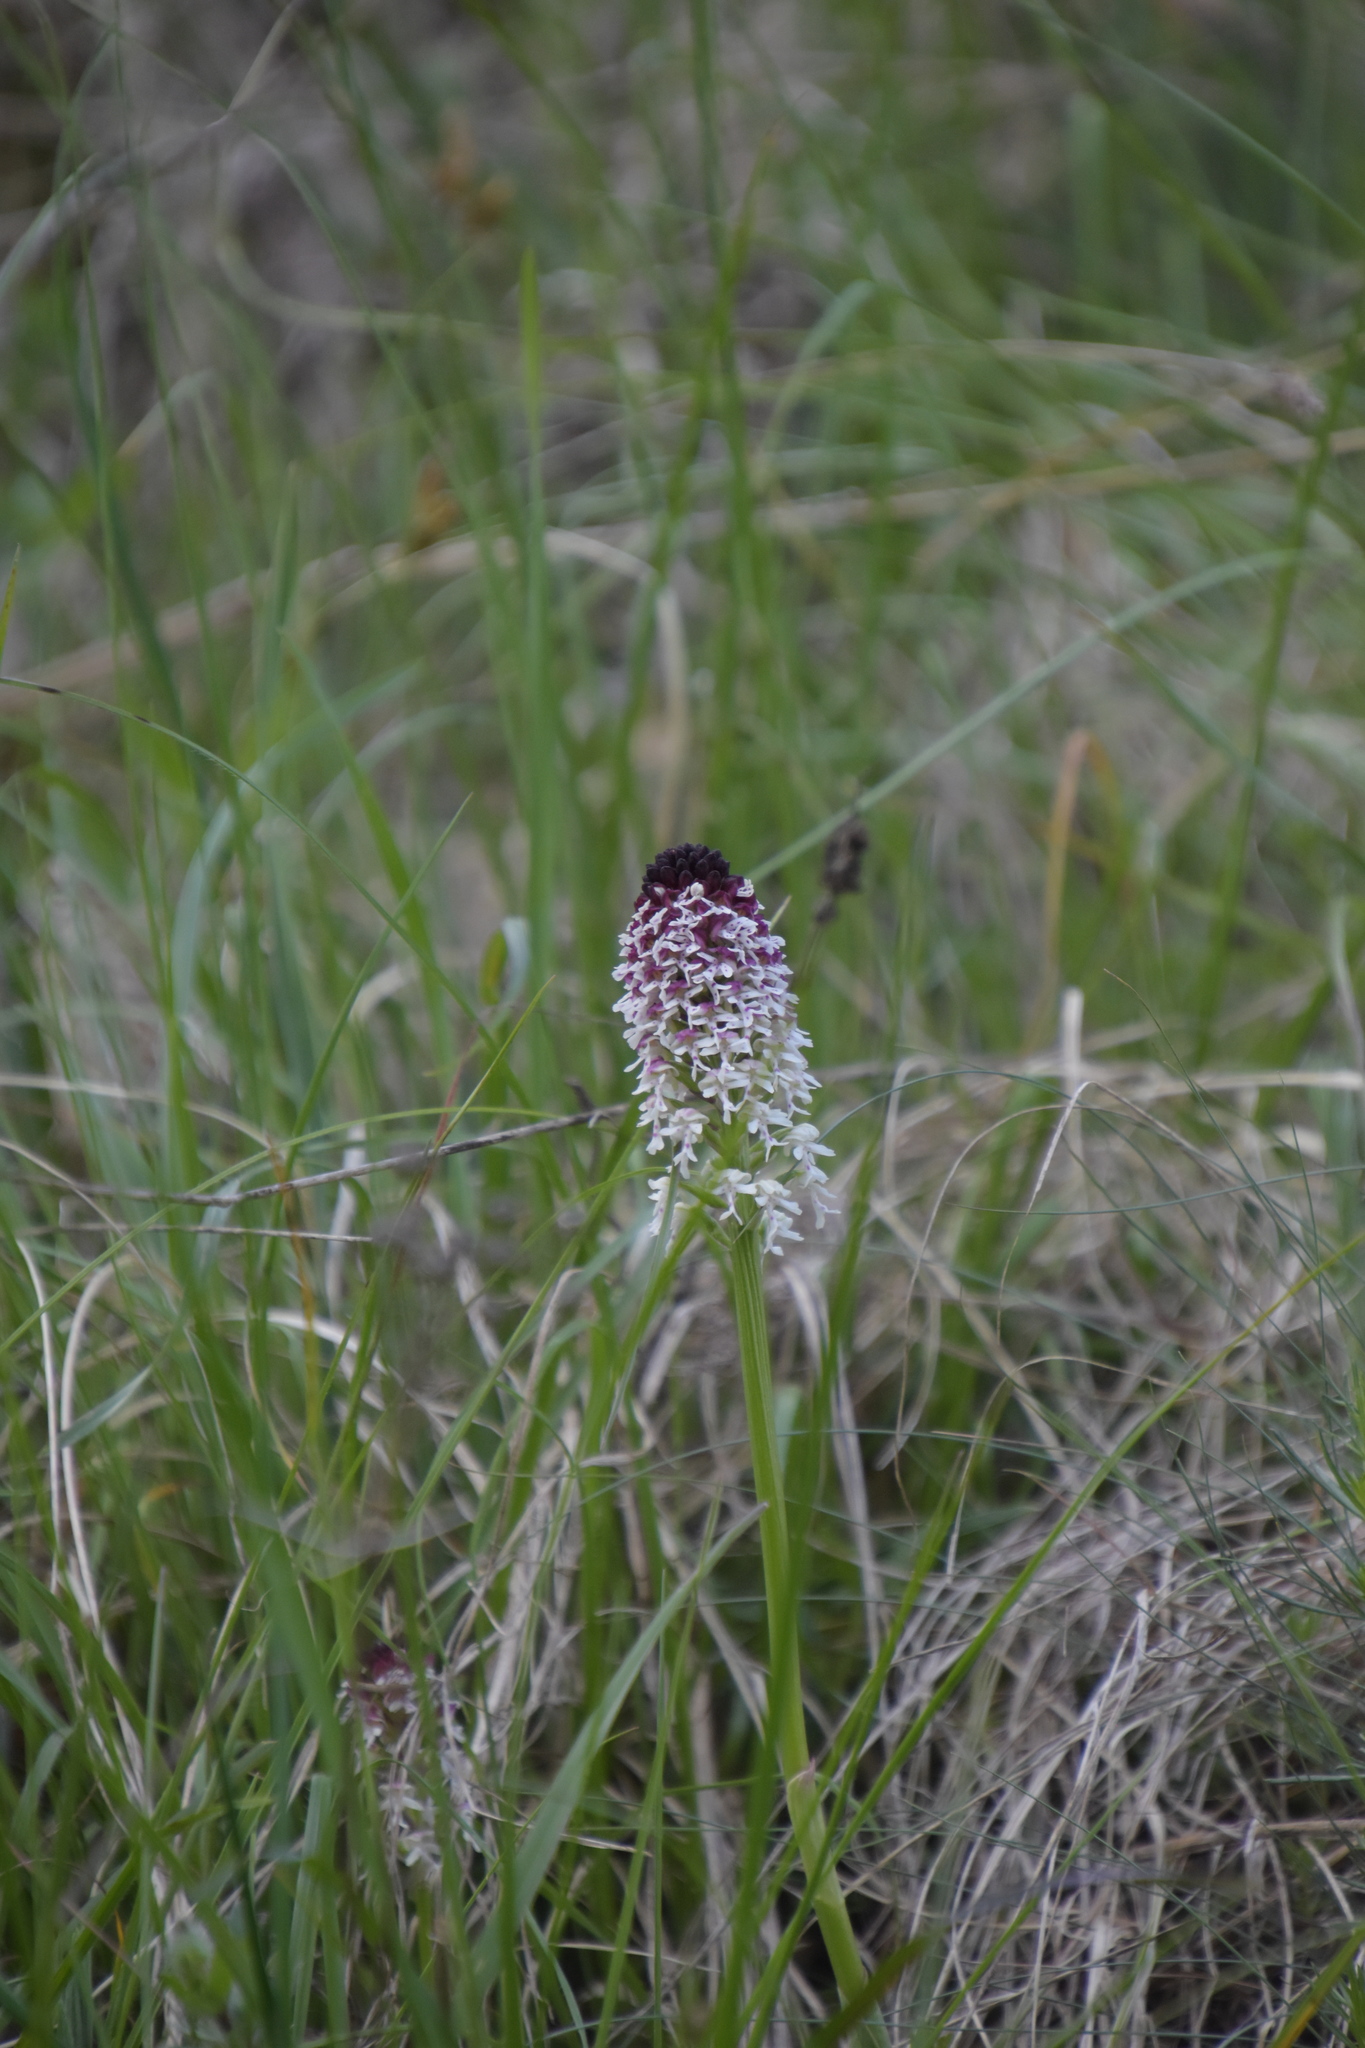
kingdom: Plantae
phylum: Tracheophyta
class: Liliopsida
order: Asparagales
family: Orchidaceae
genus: Neotinea
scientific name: Neotinea ustulata
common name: Burnt orchid
